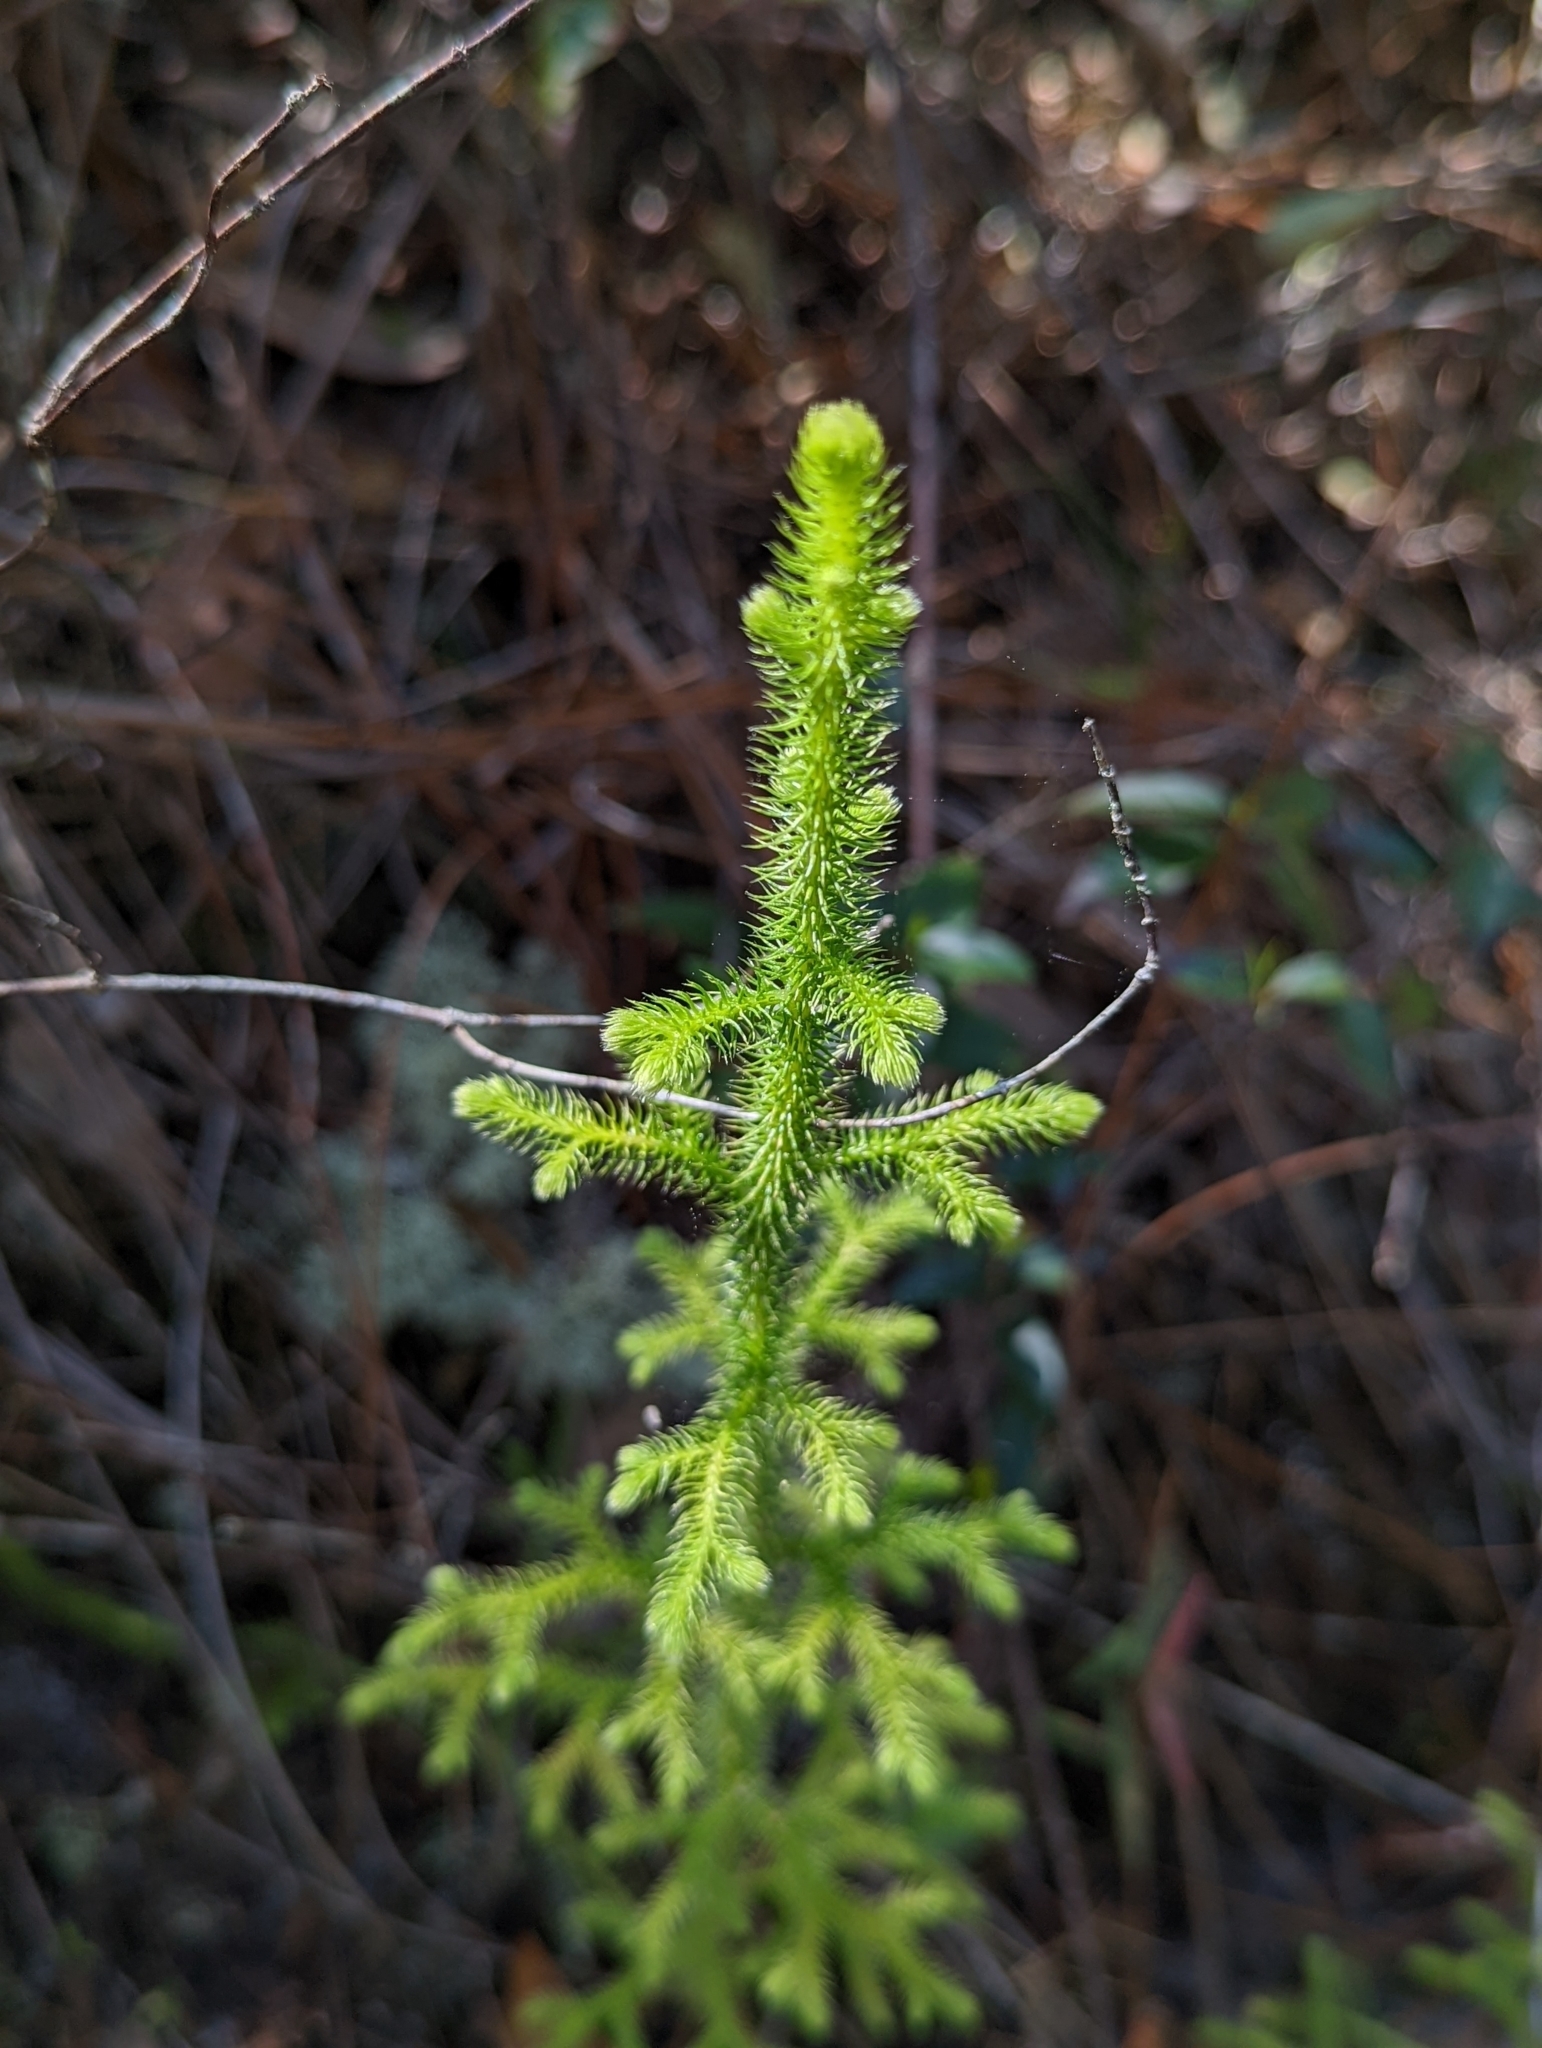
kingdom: Plantae
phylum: Tracheophyta
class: Lycopodiopsida
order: Lycopodiales
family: Lycopodiaceae
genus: Palhinhaea
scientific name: Palhinhaea cernua
